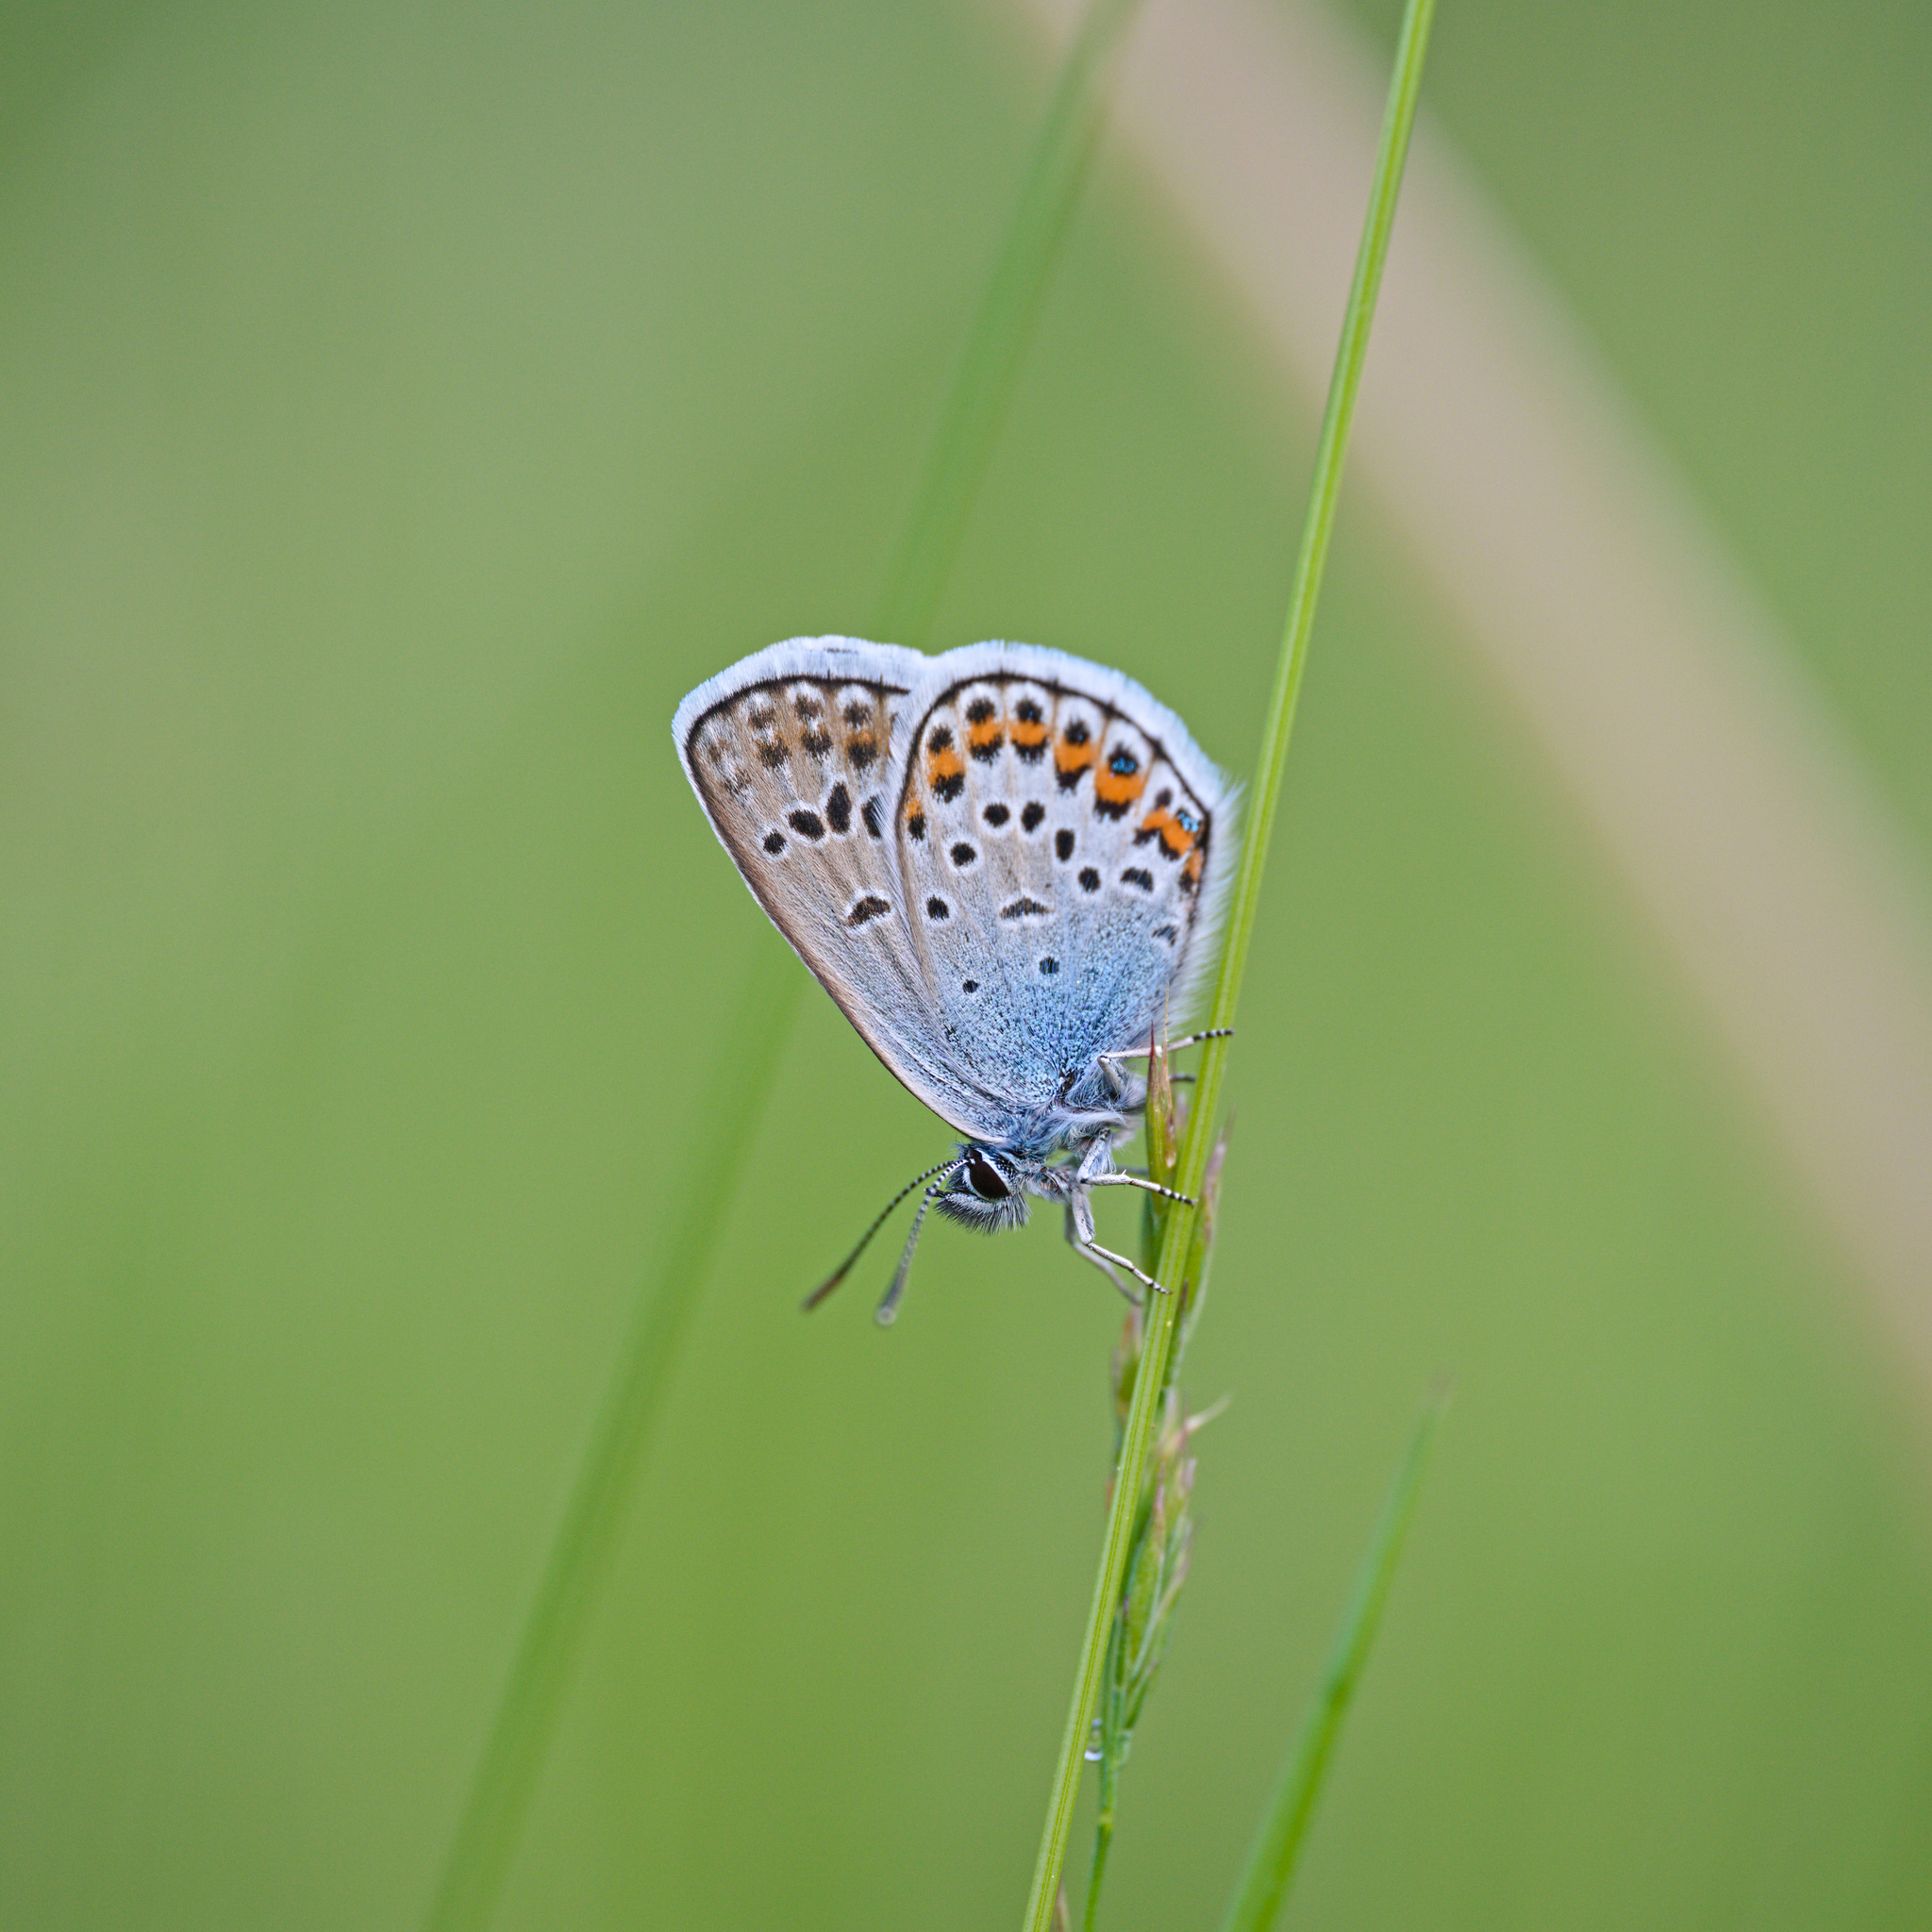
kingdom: Animalia
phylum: Arthropoda
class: Insecta
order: Lepidoptera
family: Lycaenidae
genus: Plebejus
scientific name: Plebejus argus
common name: Silver-studded blue
